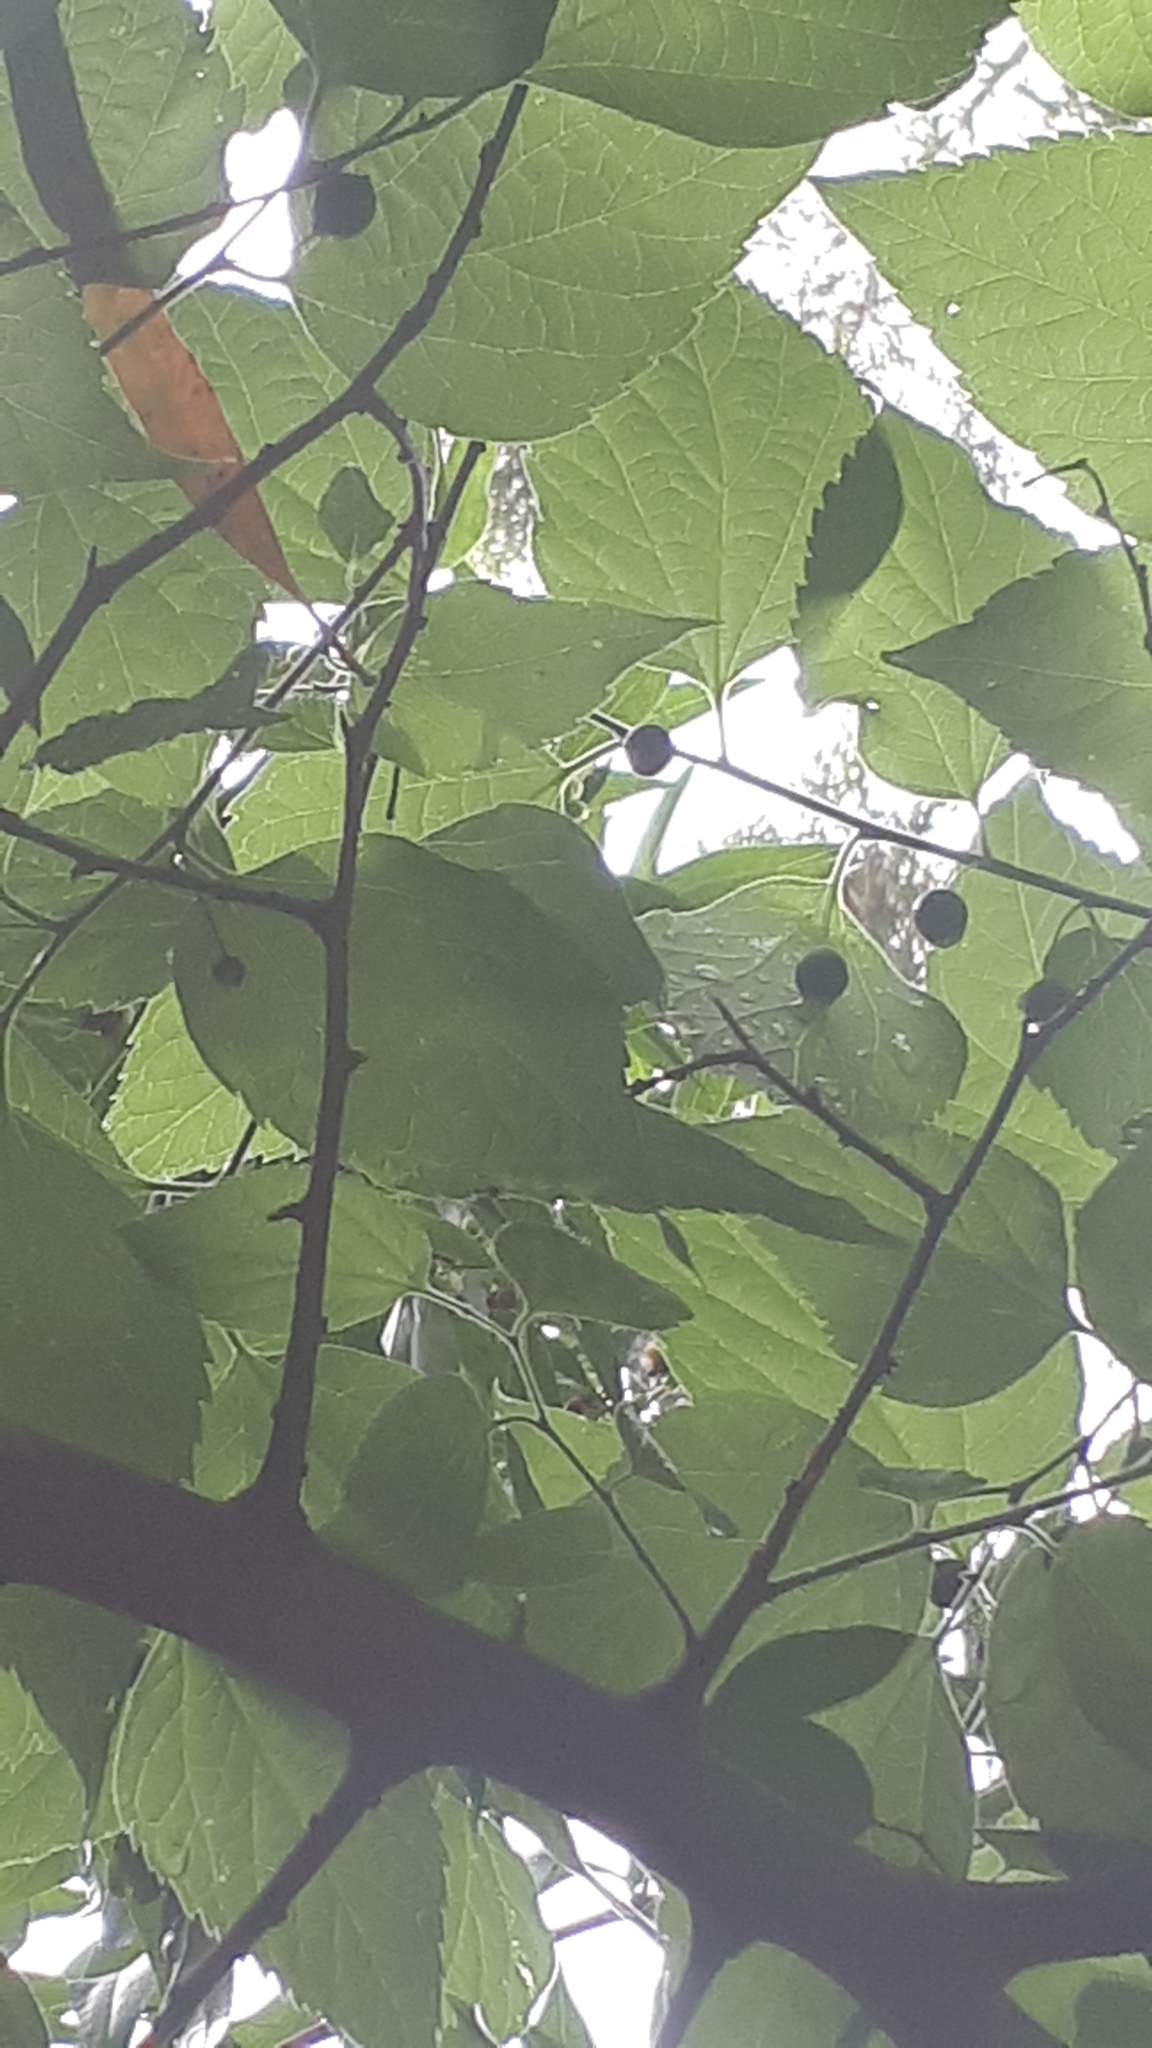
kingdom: Plantae
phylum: Tracheophyta
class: Magnoliopsida
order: Rosales
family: Cannabaceae
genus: Celtis
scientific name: Celtis tala
